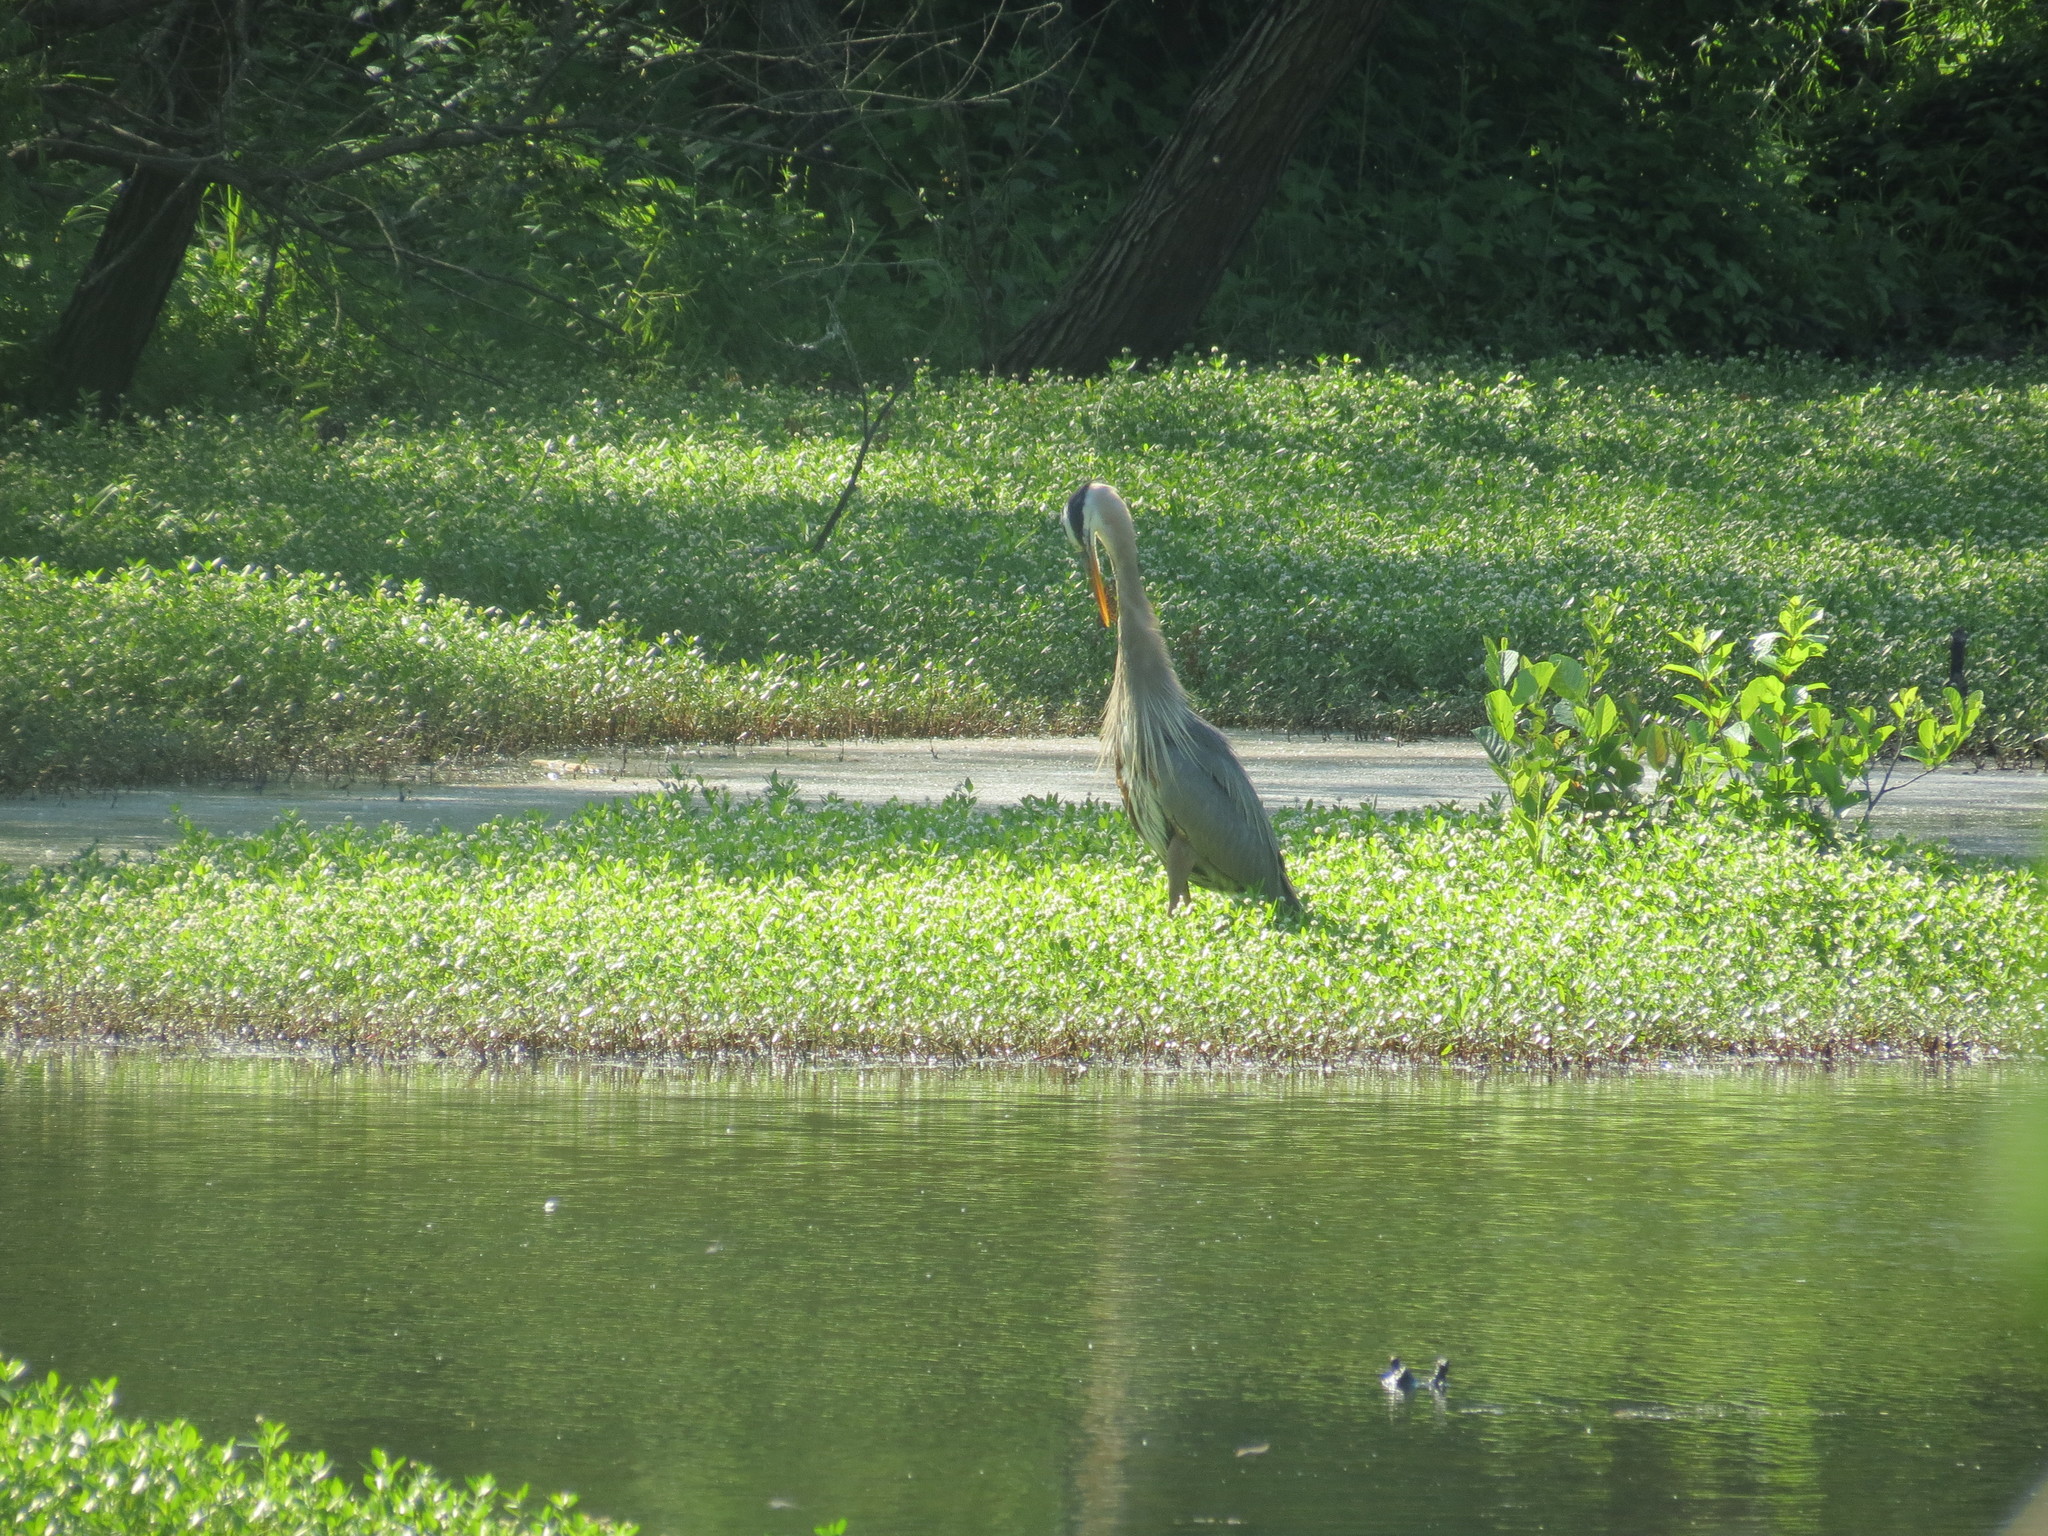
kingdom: Animalia
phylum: Chordata
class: Aves
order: Pelecaniformes
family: Ardeidae
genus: Ardea
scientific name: Ardea herodias
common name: Great blue heron
